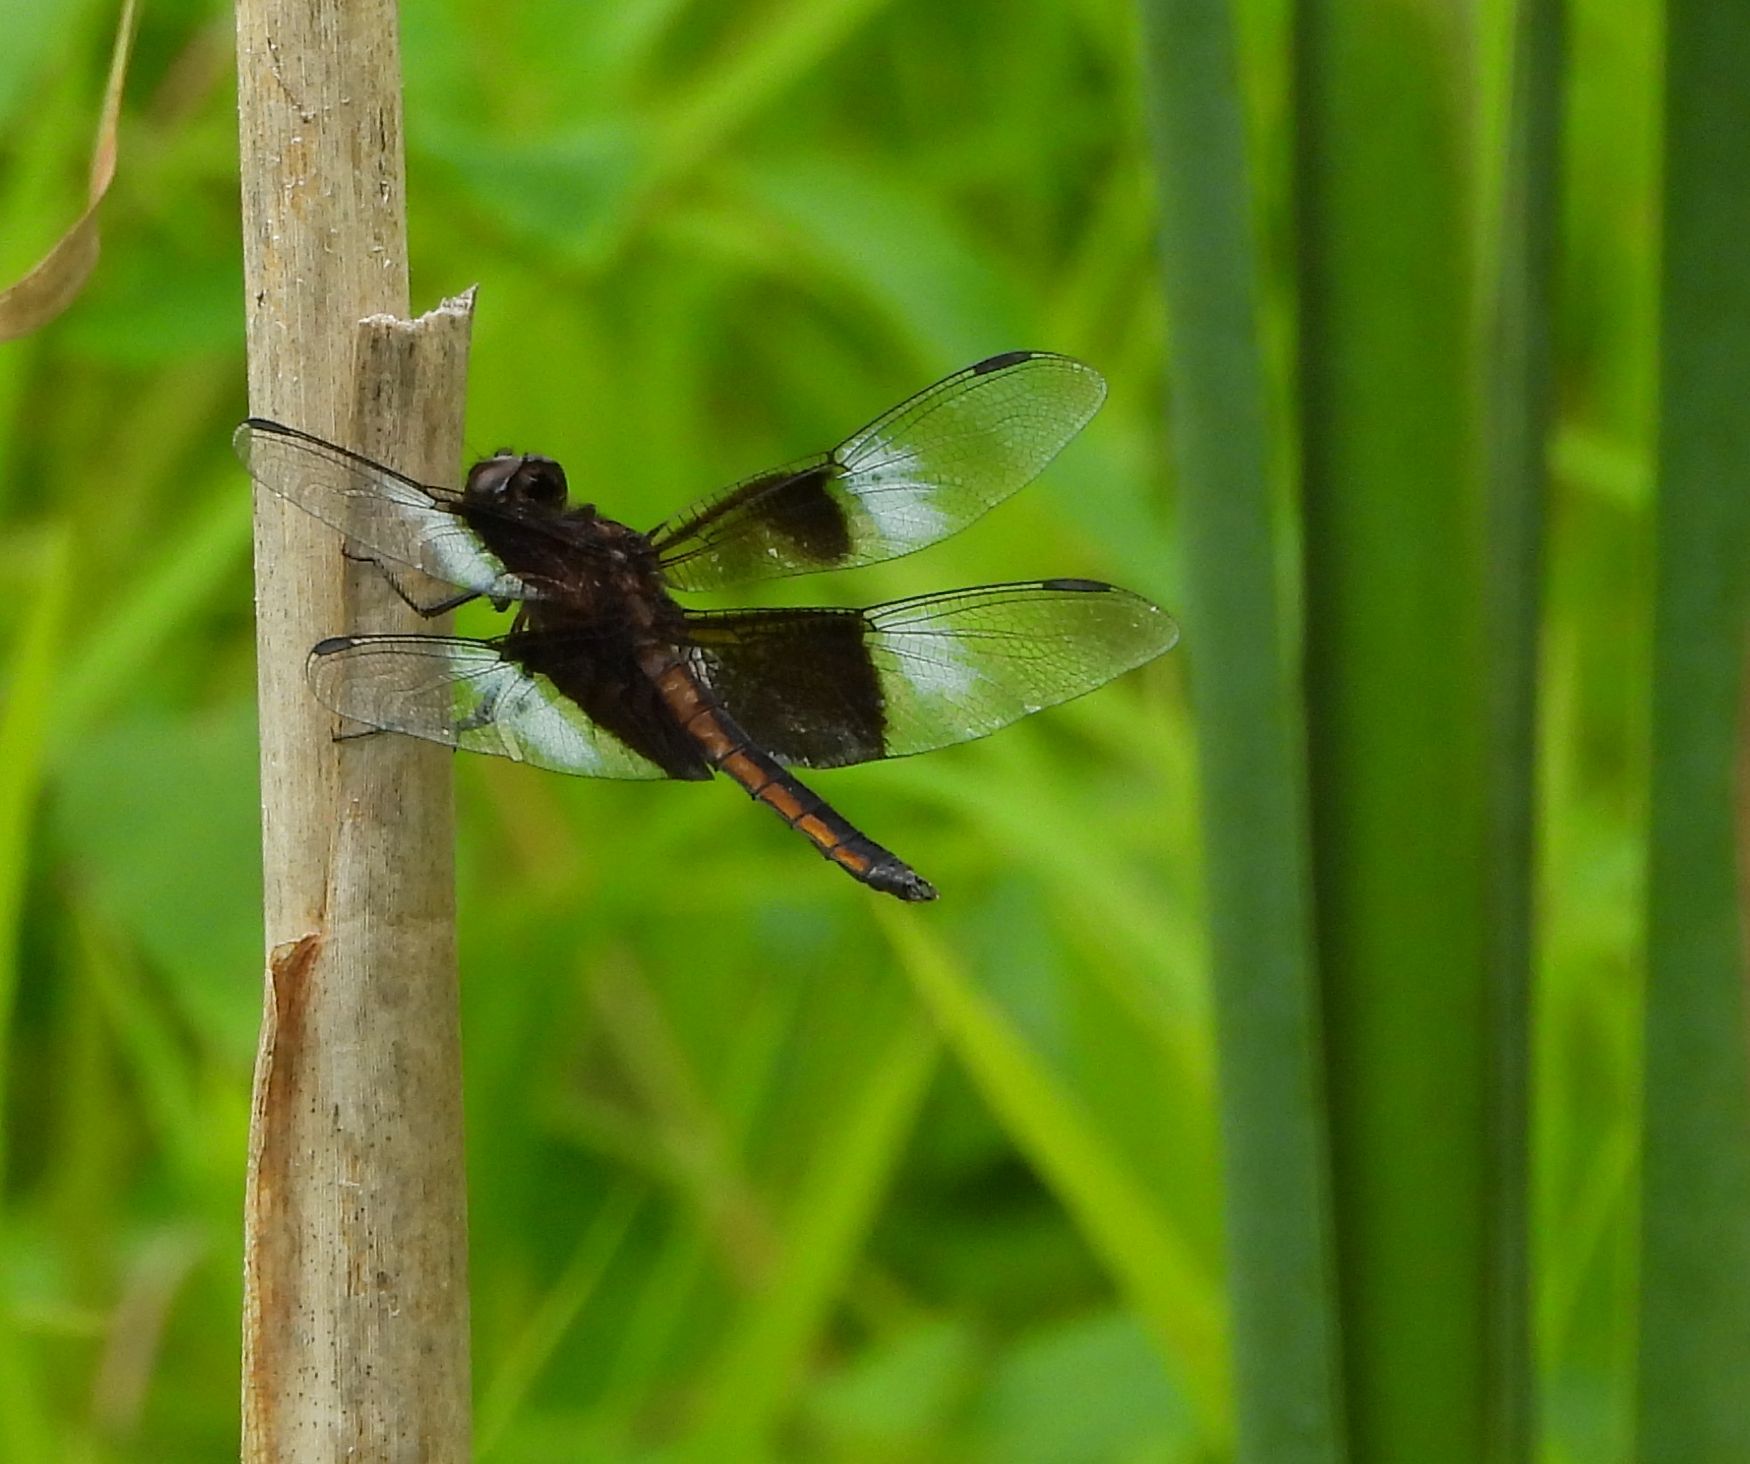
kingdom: Animalia
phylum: Arthropoda
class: Insecta
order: Odonata
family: Libellulidae
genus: Libellula
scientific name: Libellula luctuosa
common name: Widow skimmer
